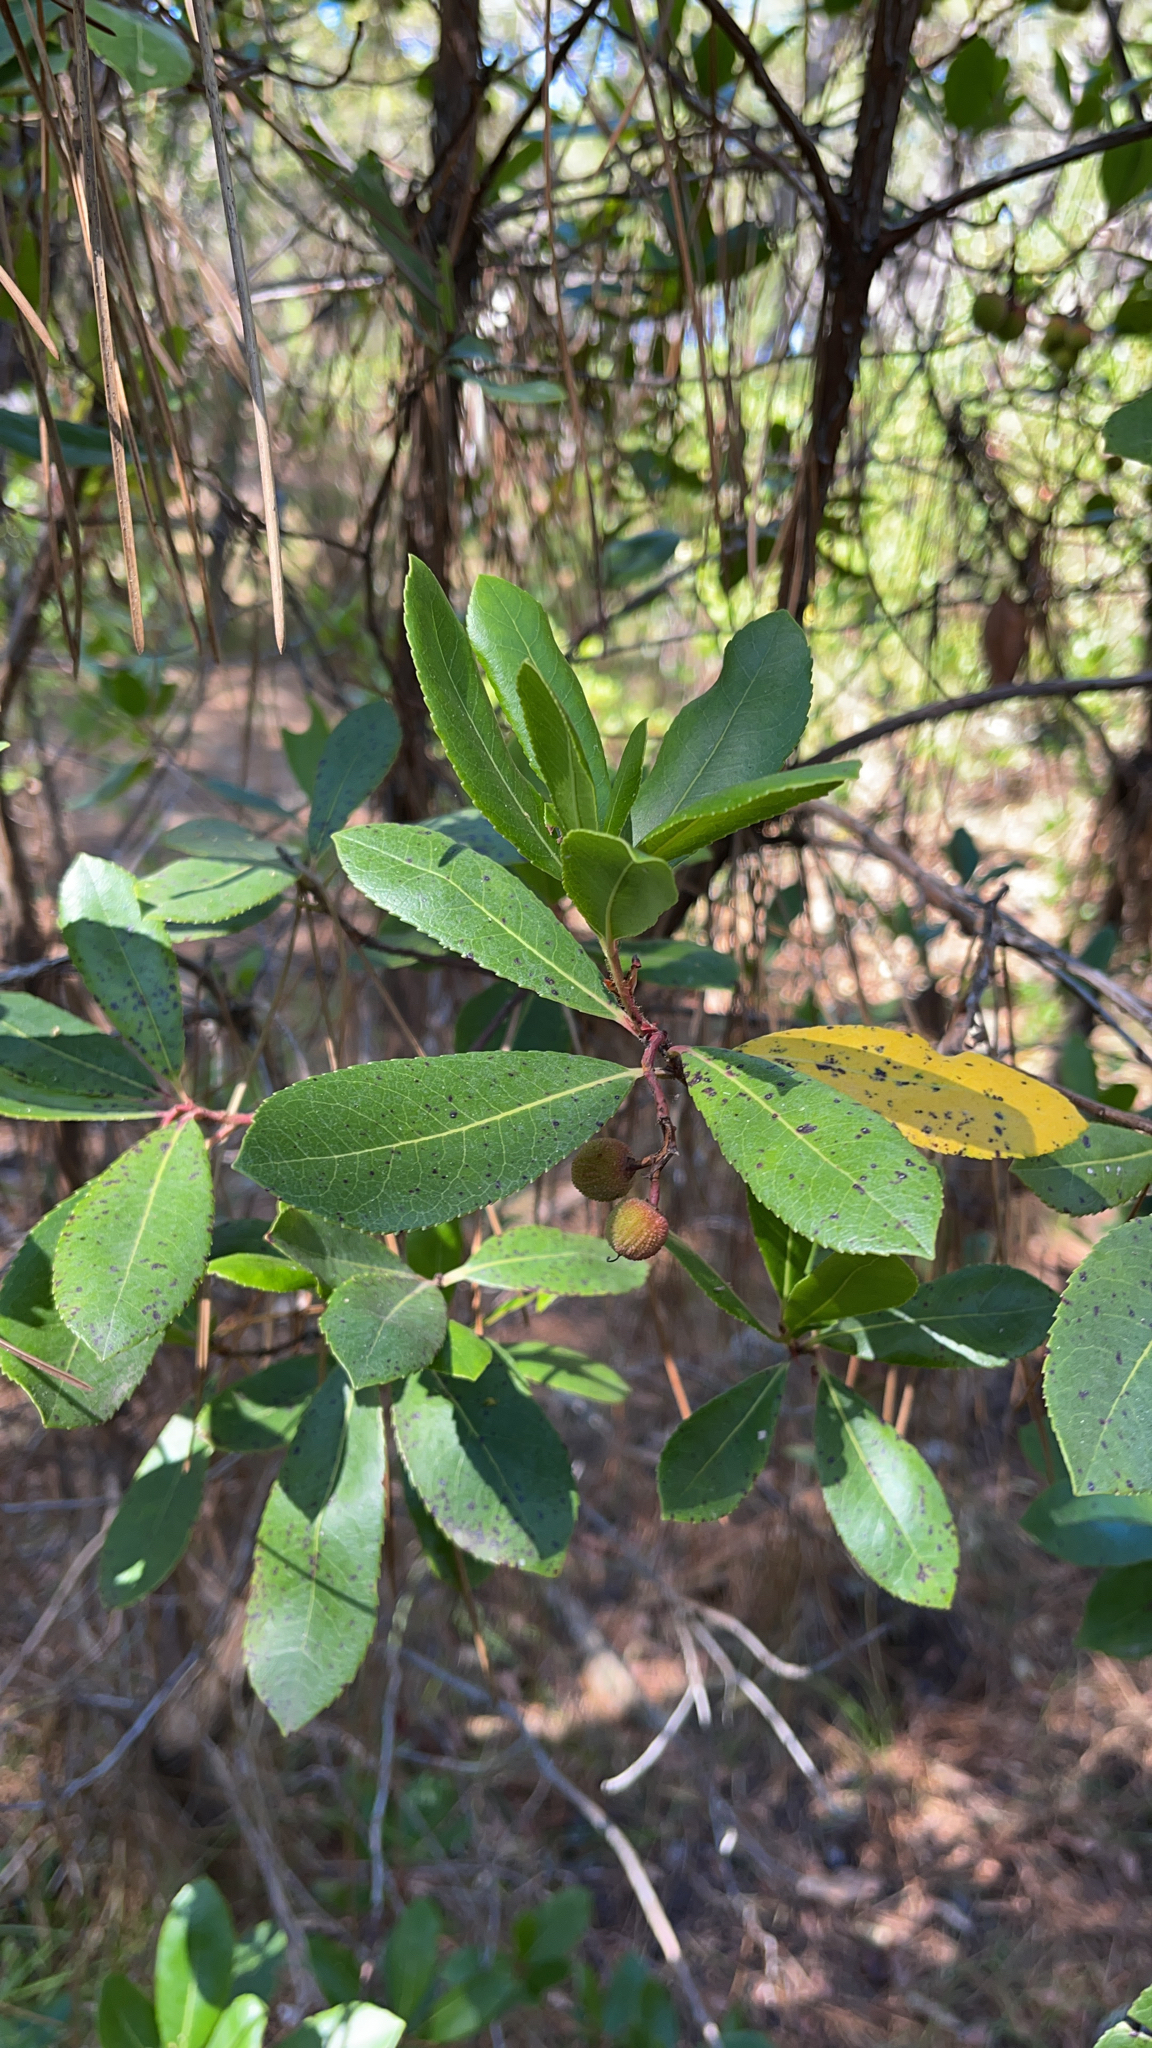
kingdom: Plantae
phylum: Tracheophyta
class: Magnoliopsida
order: Ericales
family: Ericaceae
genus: Arbutus
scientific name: Arbutus unedo
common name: Strawberry-tree
